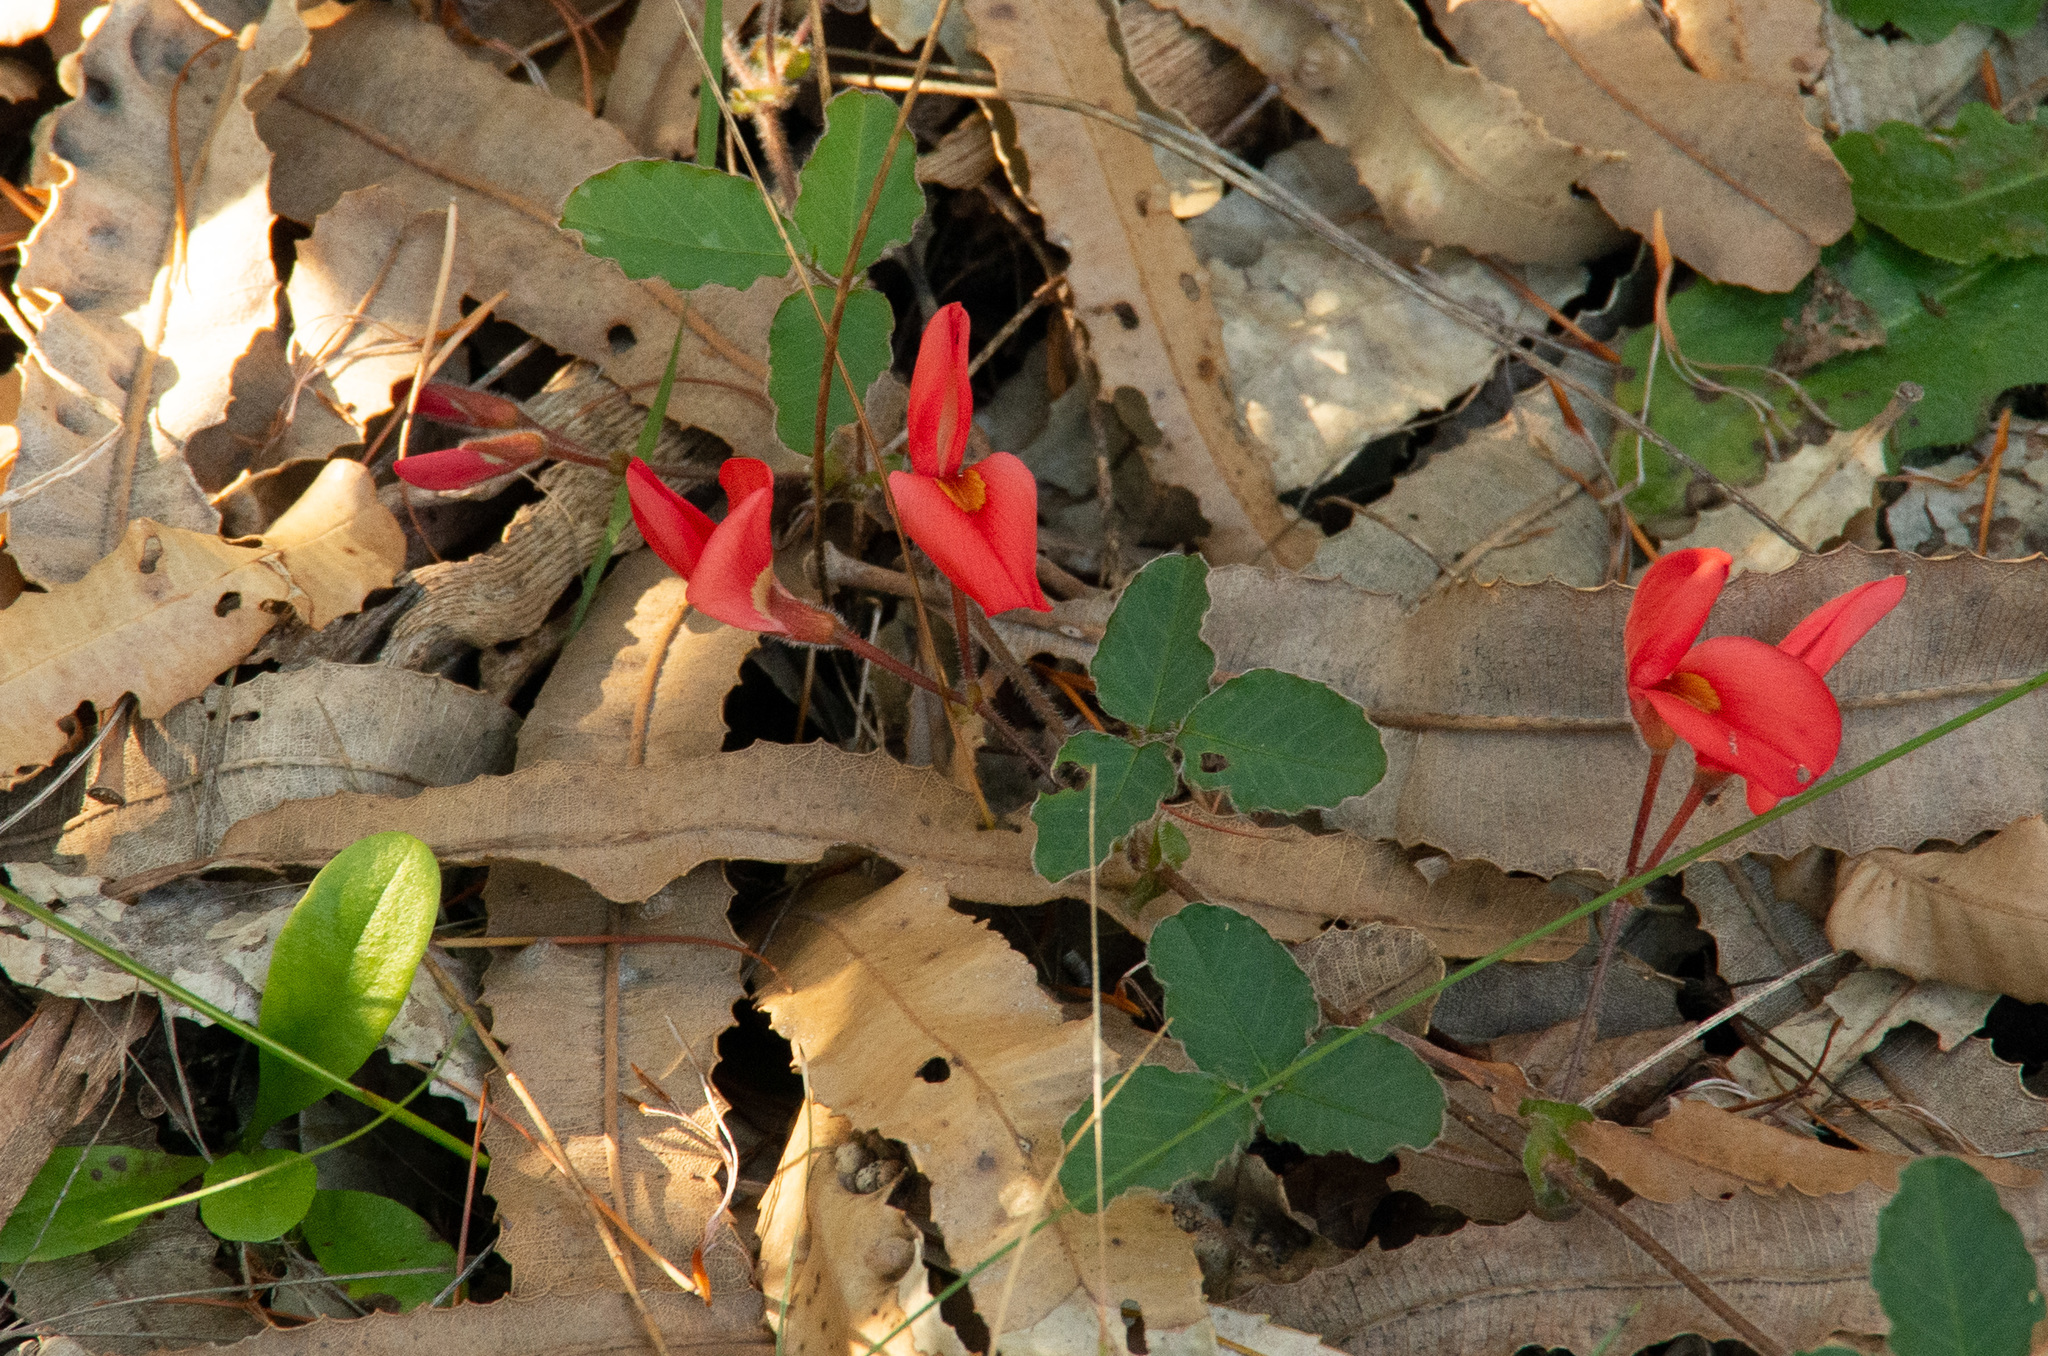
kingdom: Plantae
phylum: Tracheophyta
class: Magnoliopsida
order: Fabales
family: Fabaceae
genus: Kennedia
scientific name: Kennedia prostrata
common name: Running-postman
